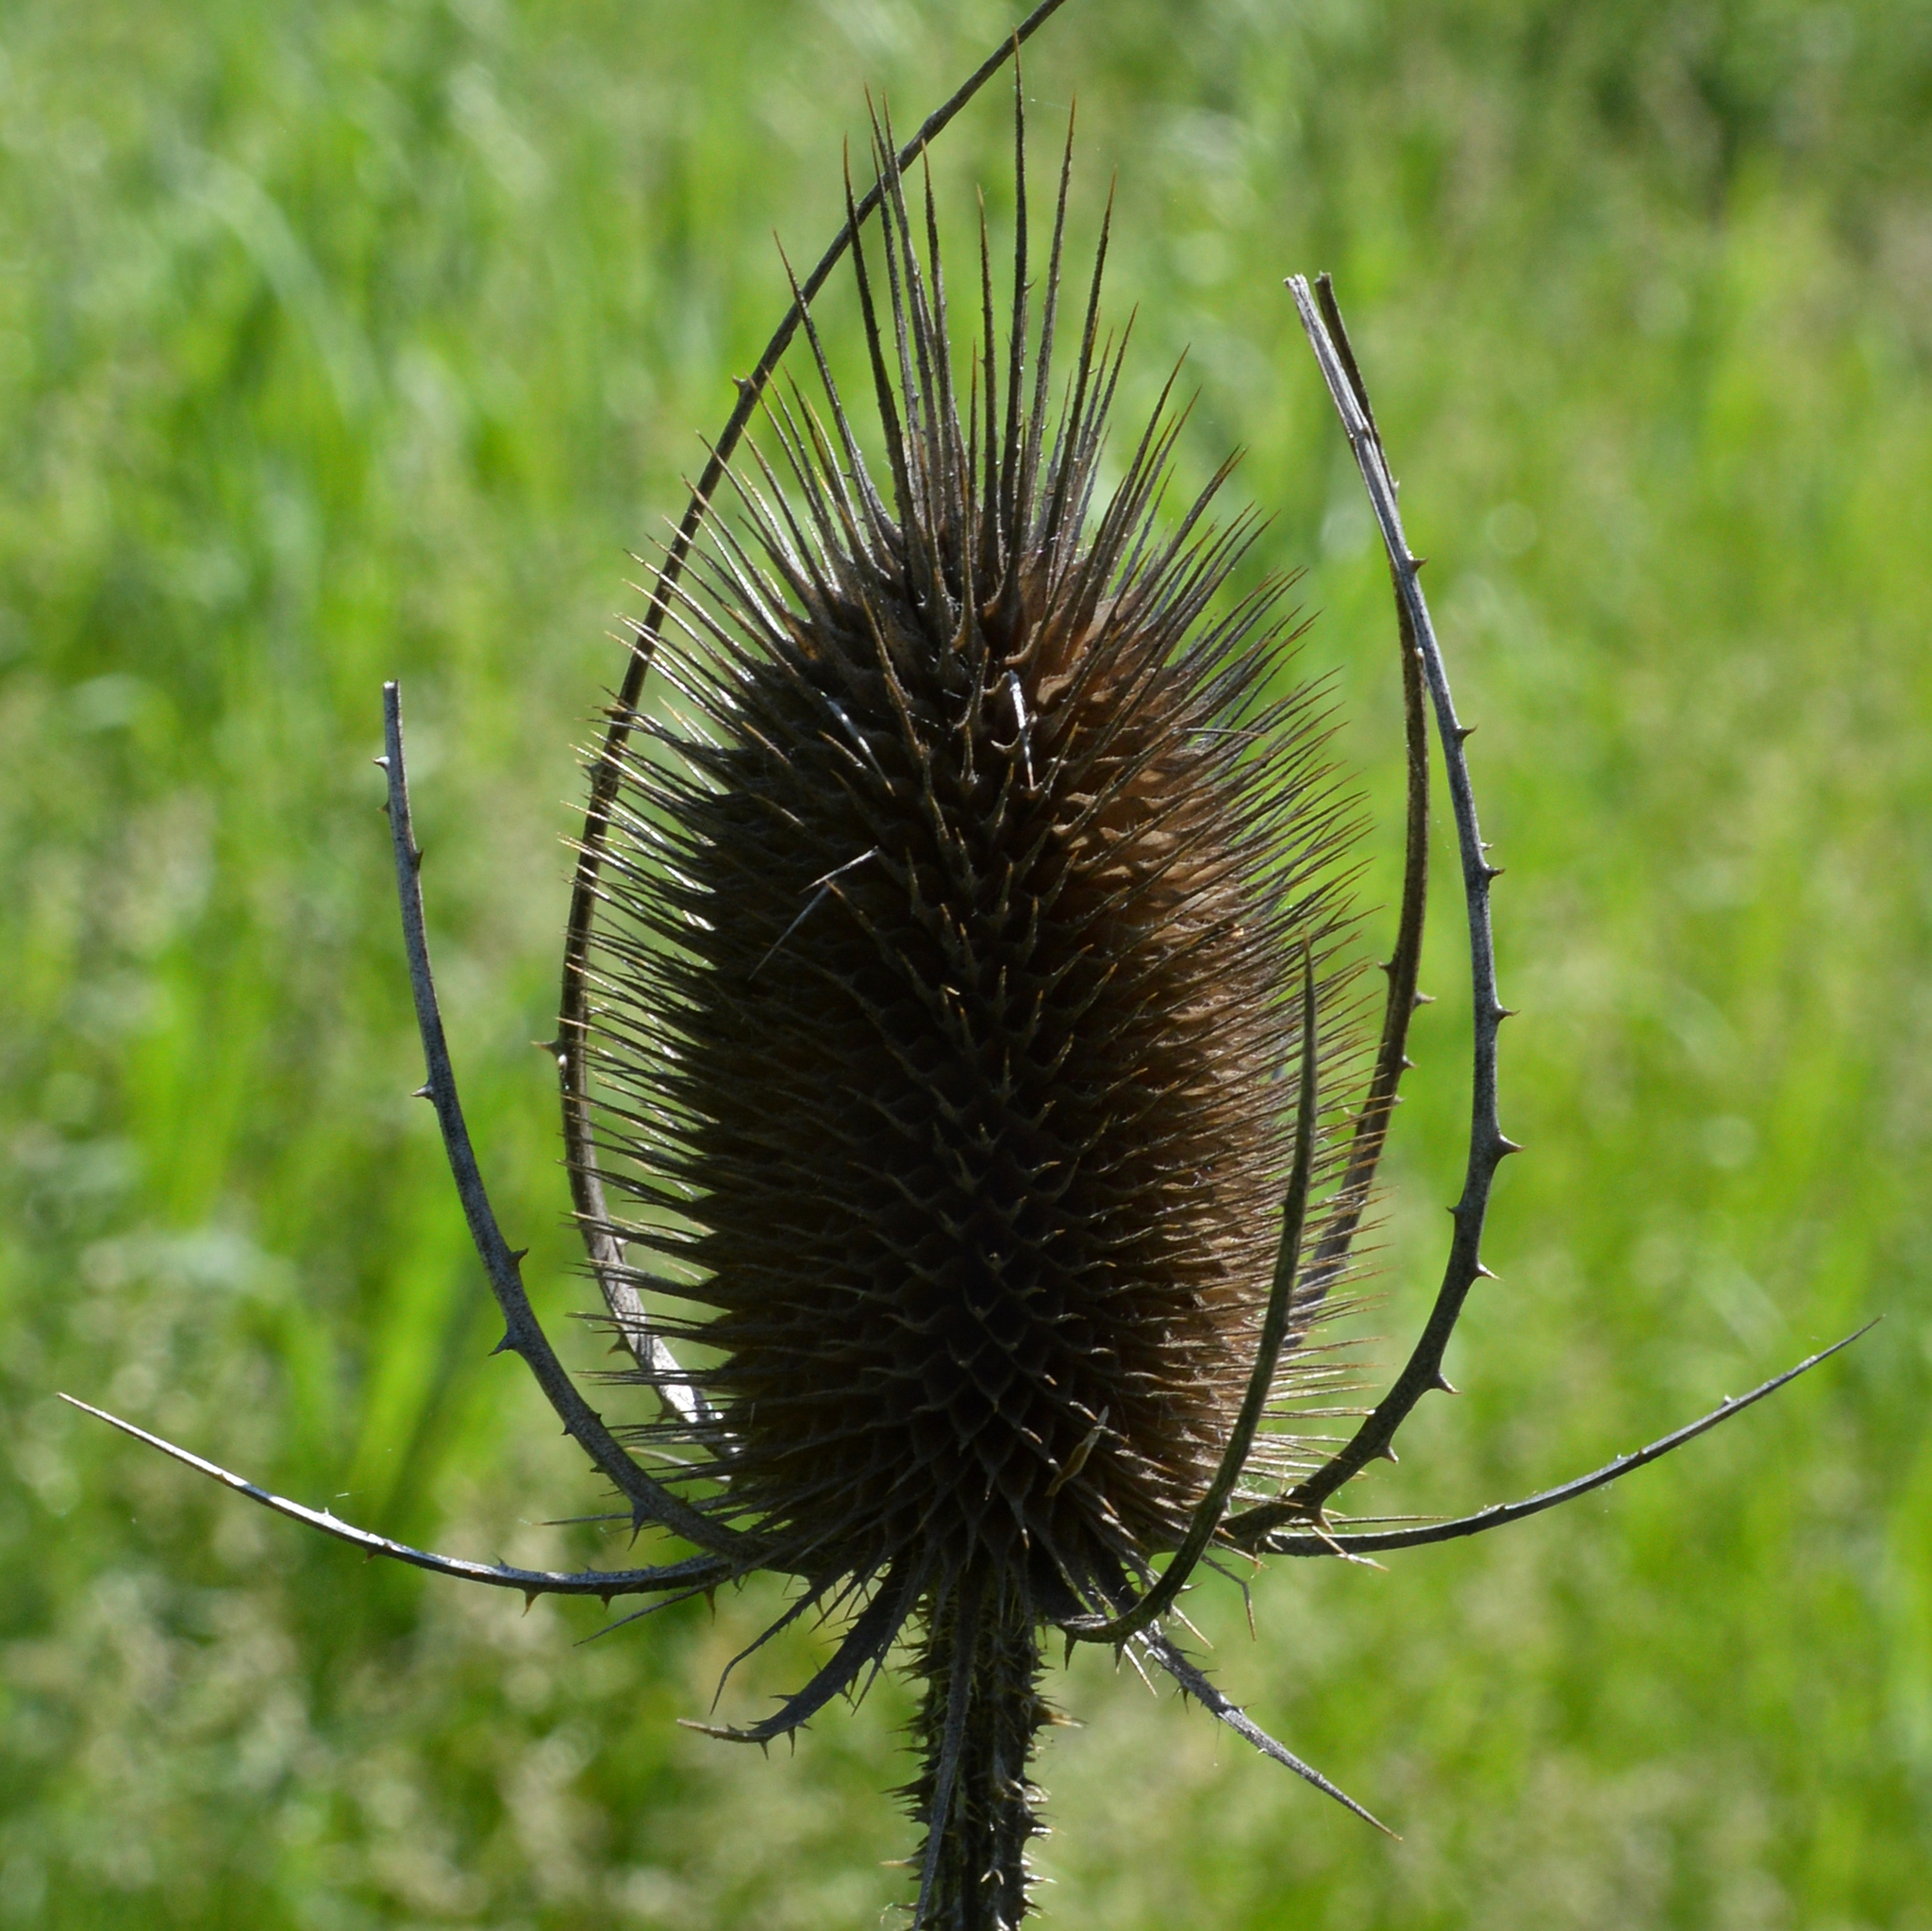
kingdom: Plantae
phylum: Tracheophyta
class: Magnoliopsida
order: Dipsacales
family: Caprifoliaceae
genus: Dipsacus
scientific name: Dipsacus fullonum
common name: Teasel
